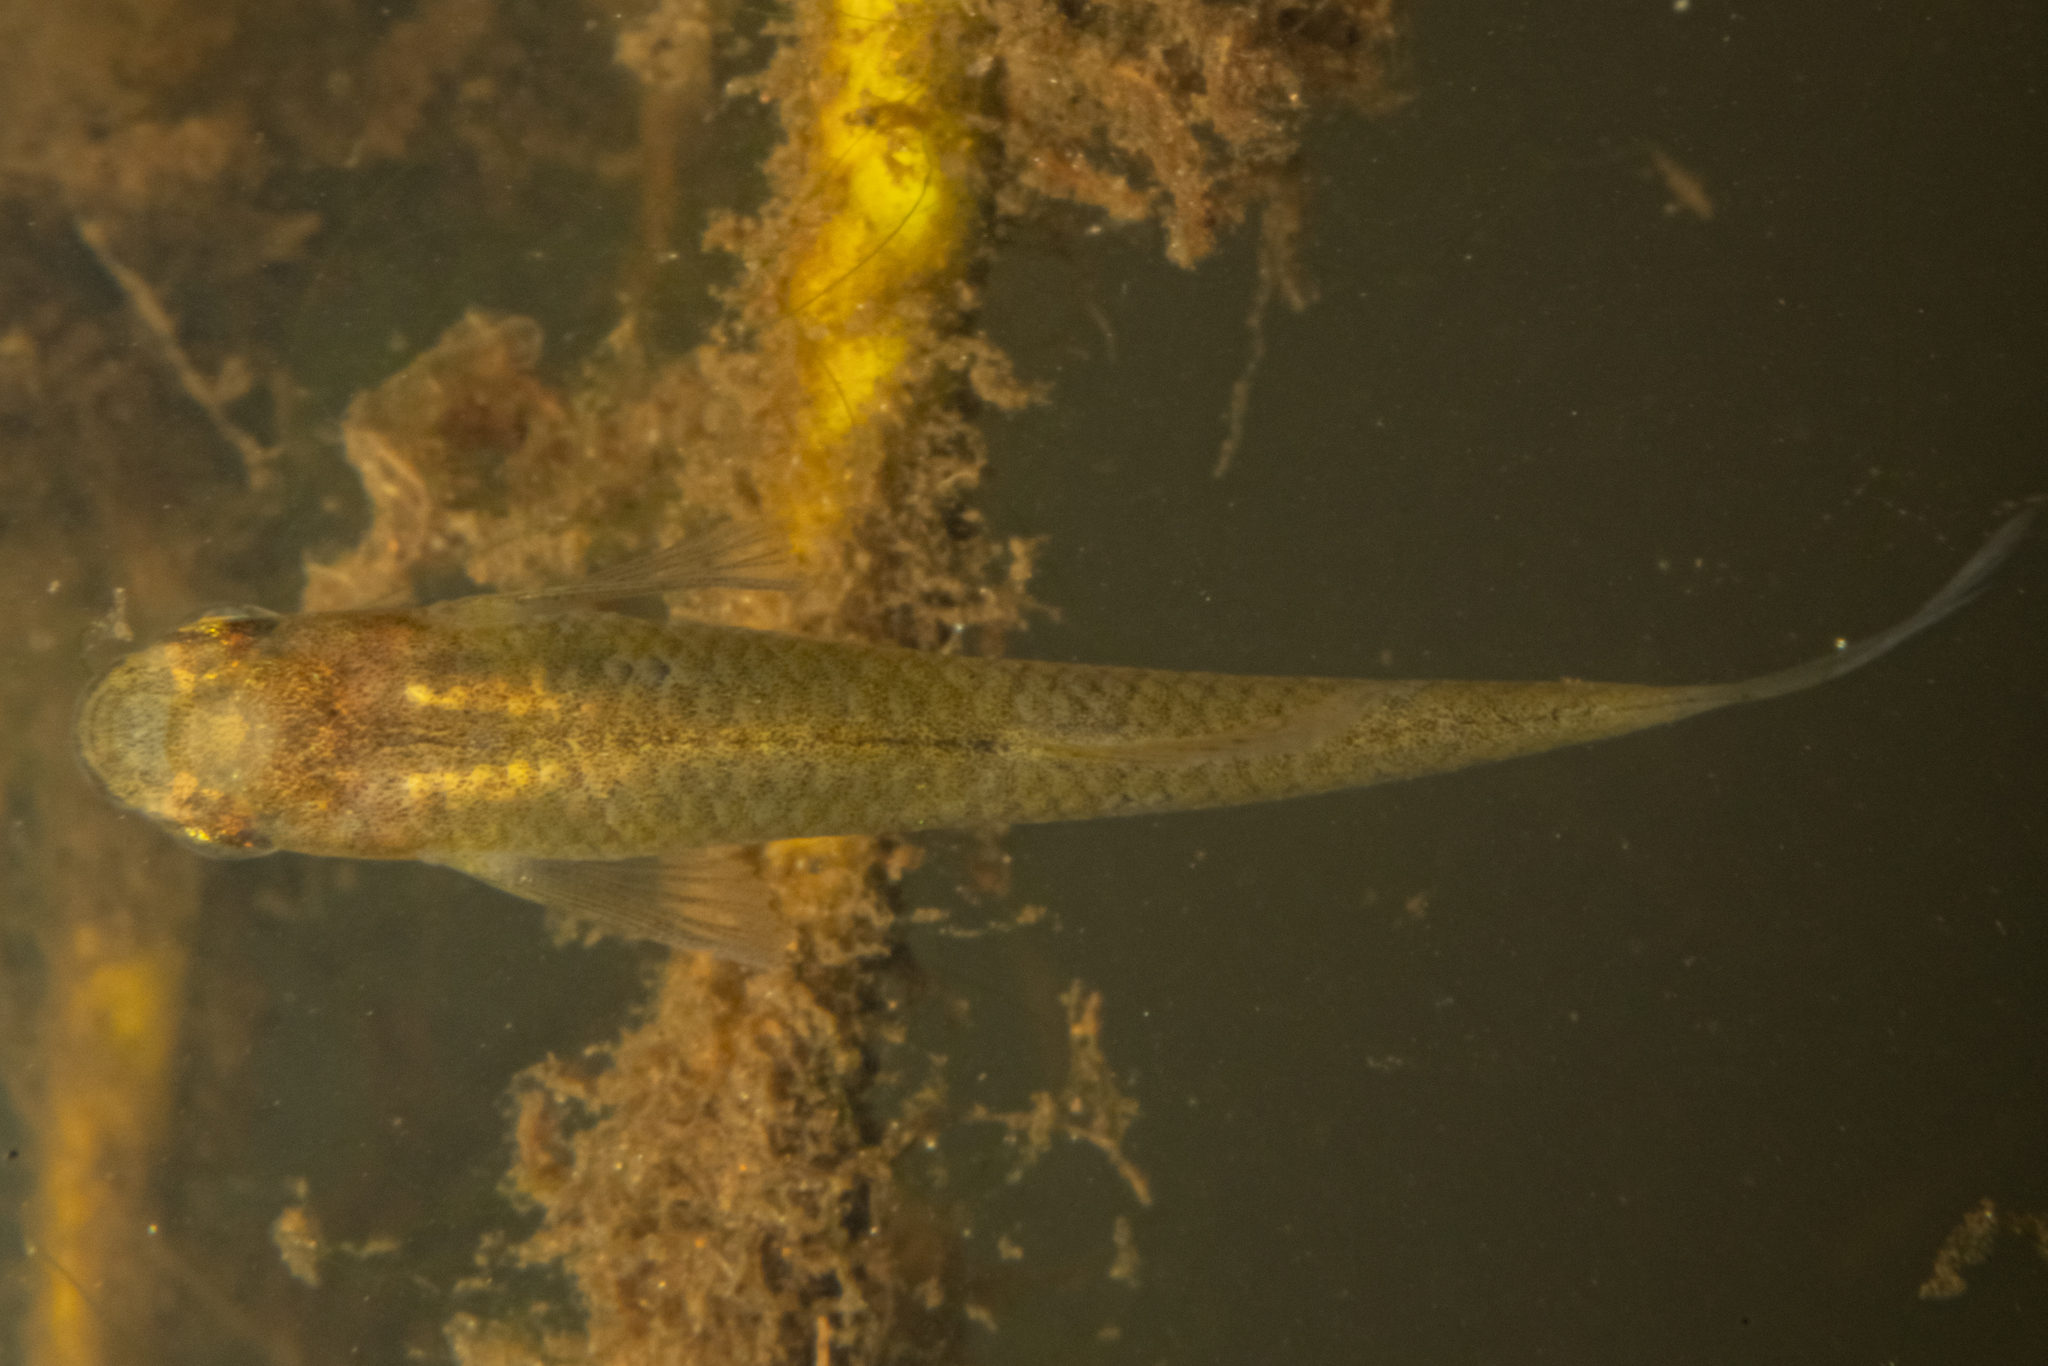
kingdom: Animalia
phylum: Chordata
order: Cyprinodontiformes
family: Poeciliidae
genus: Gambusia
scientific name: Gambusia affinis
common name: Mosquitofish
